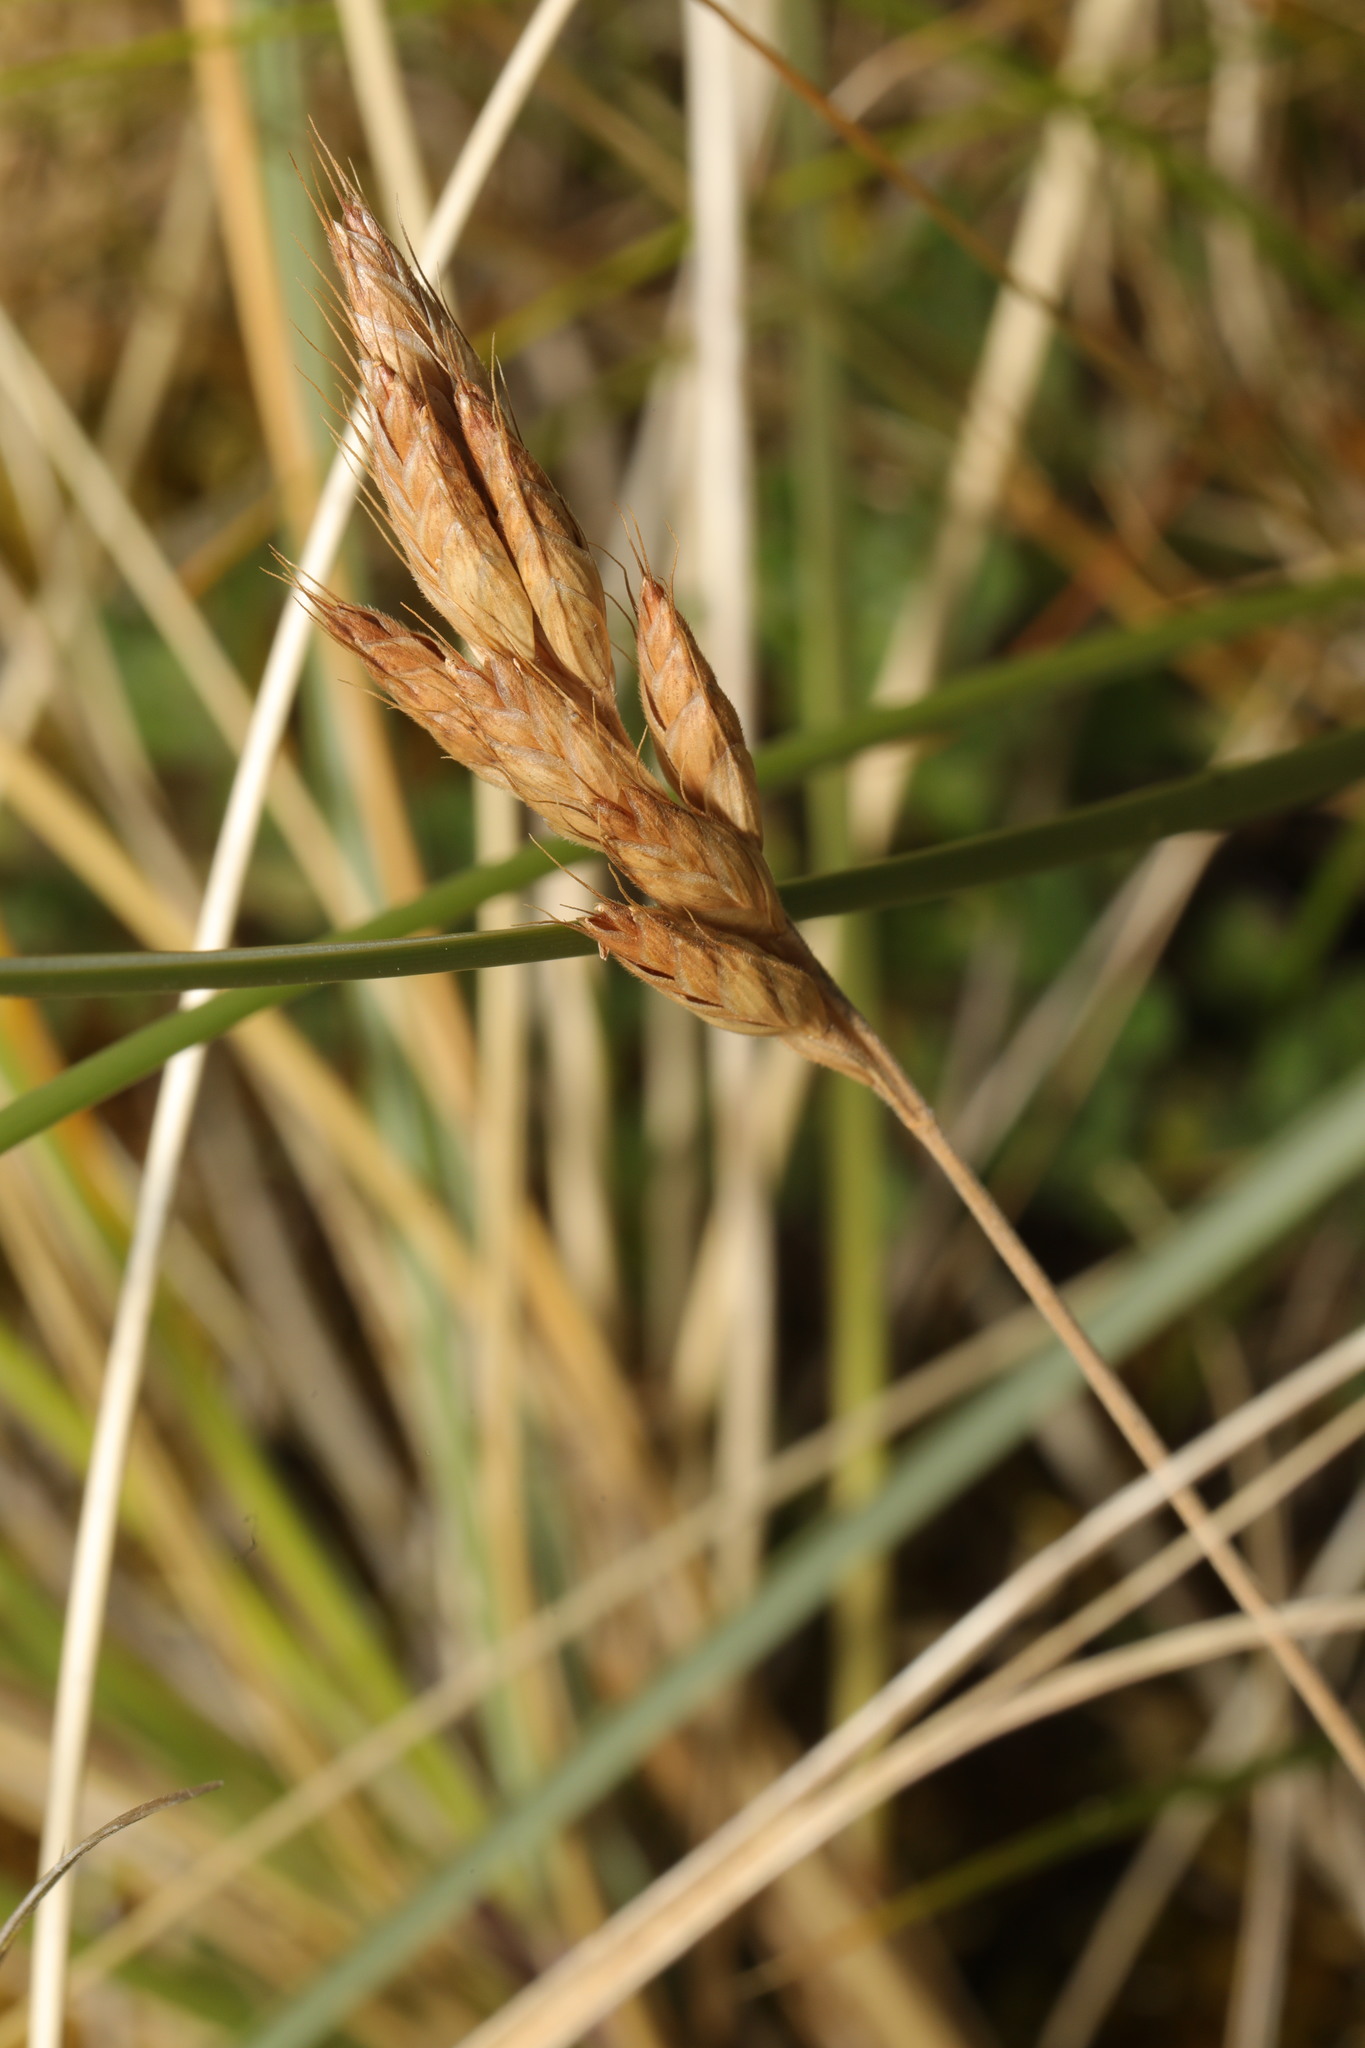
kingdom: Plantae
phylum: Tracheophyta
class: Liliopsida
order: Poales
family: Poaceae
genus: Bromus
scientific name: Bromus hordeaceus
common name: Soft brome
